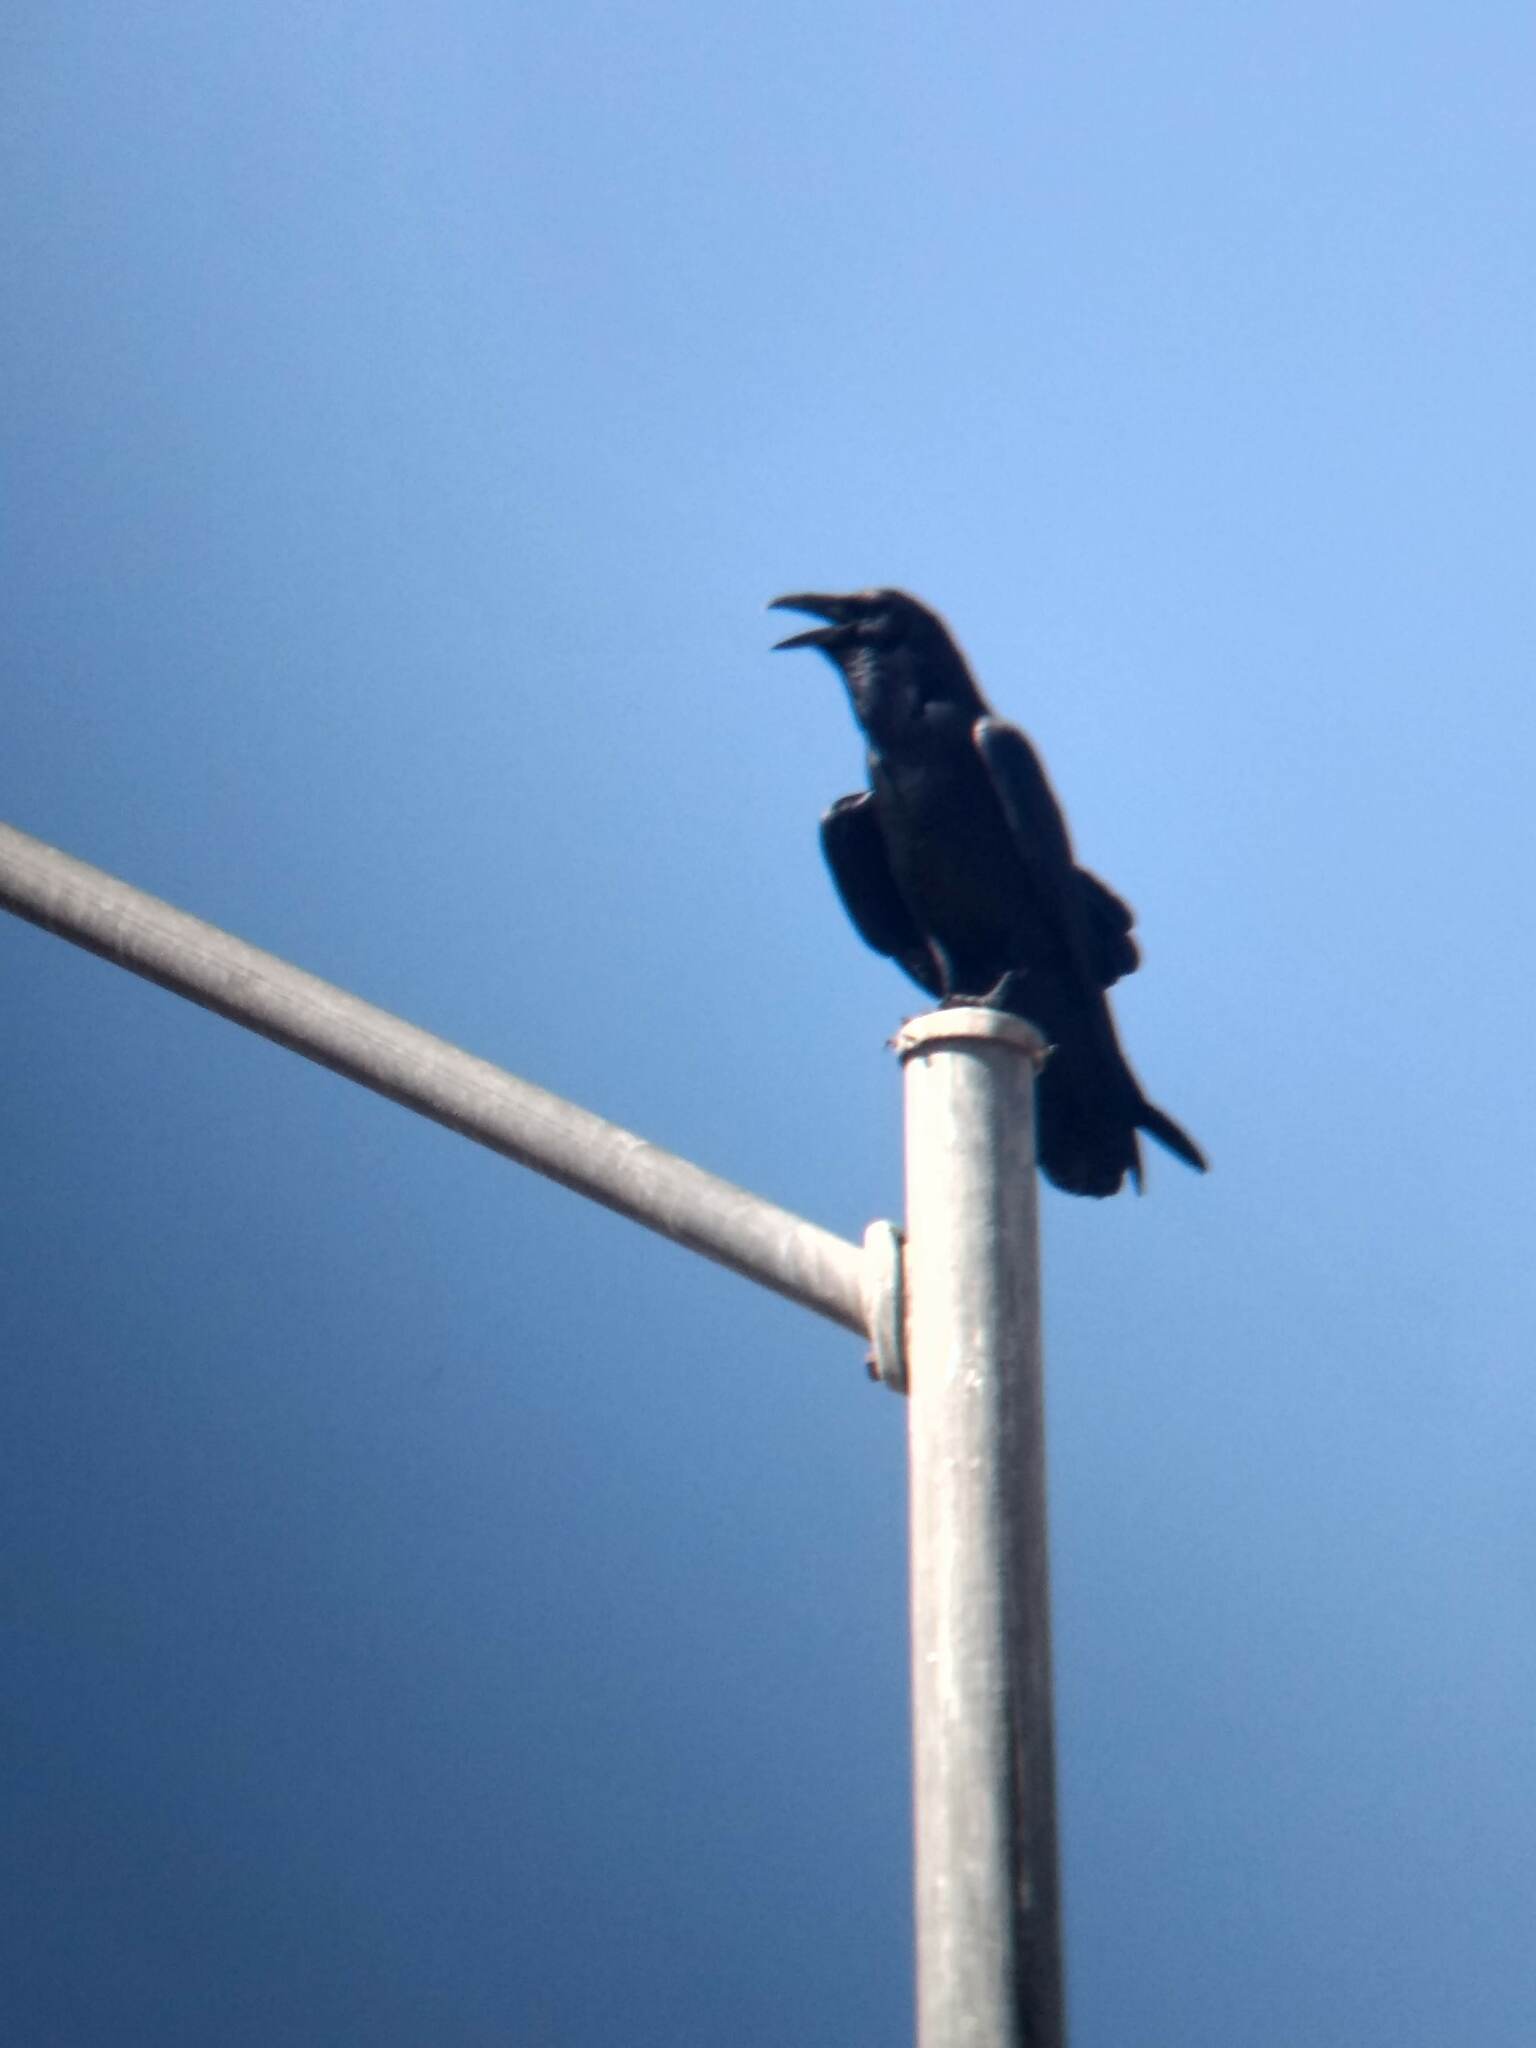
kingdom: Animalia
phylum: Chordata
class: Aves
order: Passeriformes
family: Corvidae
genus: Corvus
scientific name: Corvus corax
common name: Common raven
